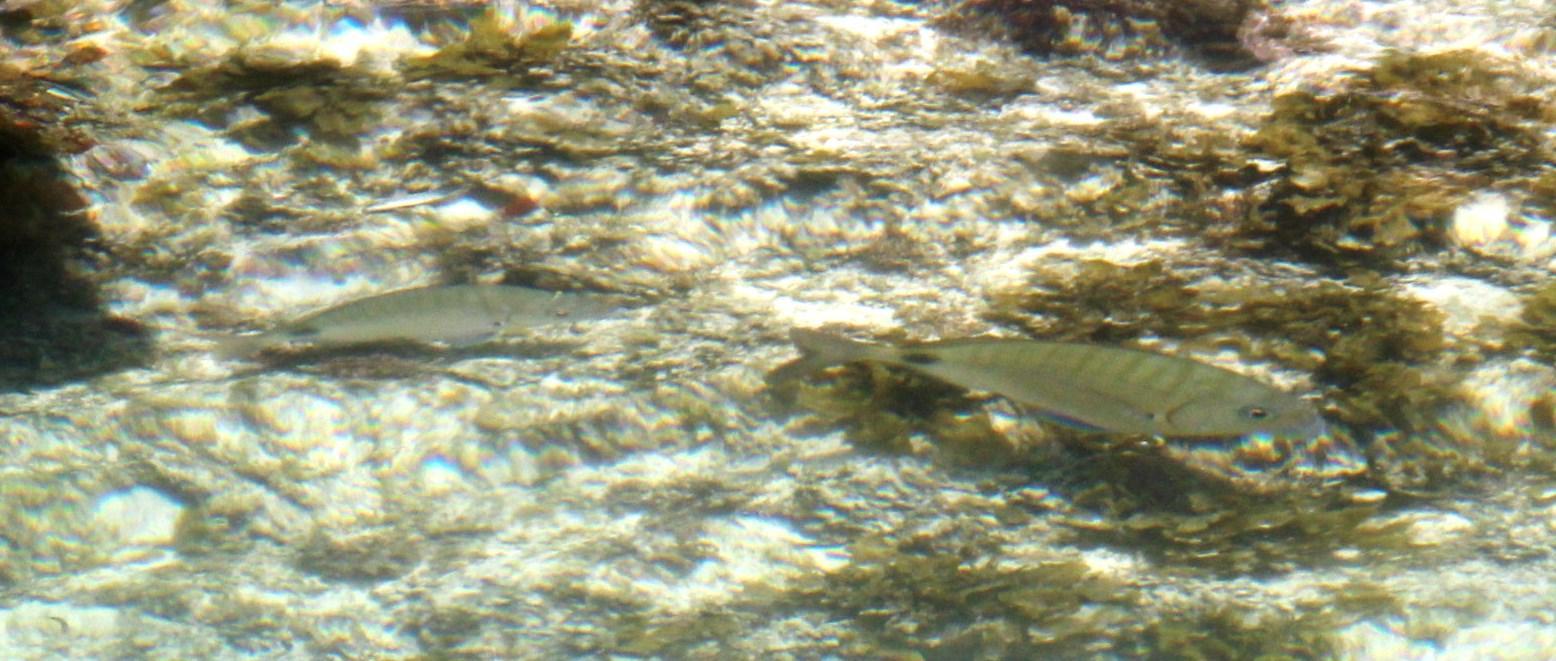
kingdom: Animalia
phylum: Chordata
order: Perciformes
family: Sparidae
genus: Diplodus
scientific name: Diplodus capensis
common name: Blacktail
